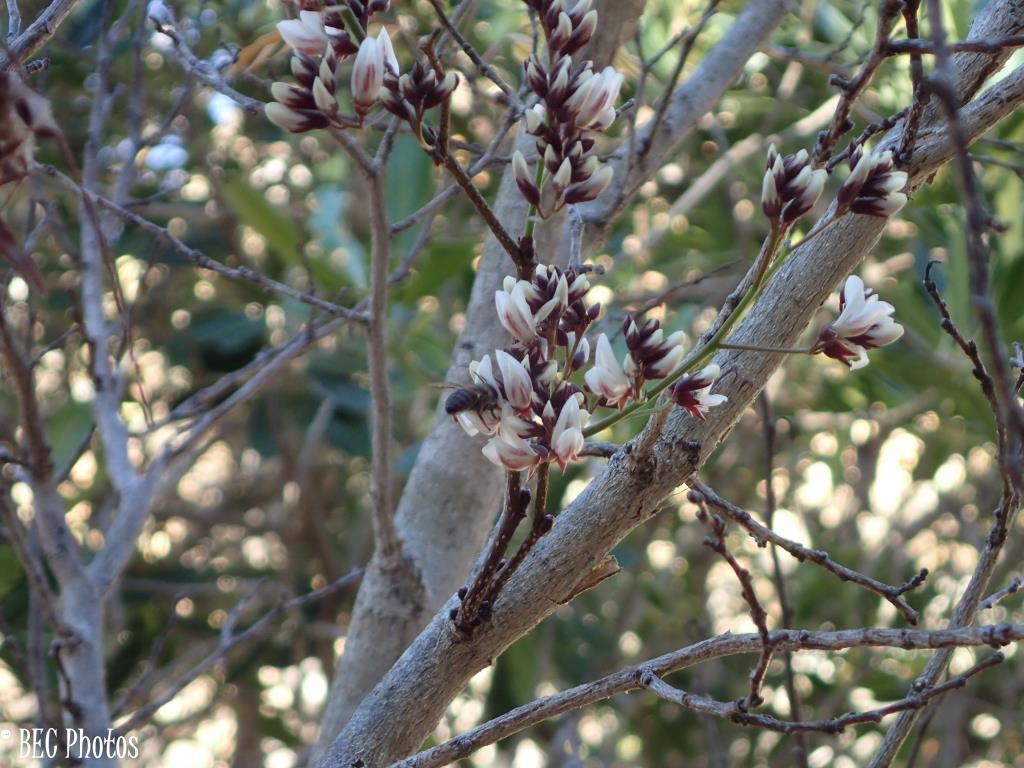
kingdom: Plantae
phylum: Tracheophyta
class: Magnoliopsida
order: Fabales
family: Fabaceae
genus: Dalbergia
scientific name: Dalbergia pervillei
